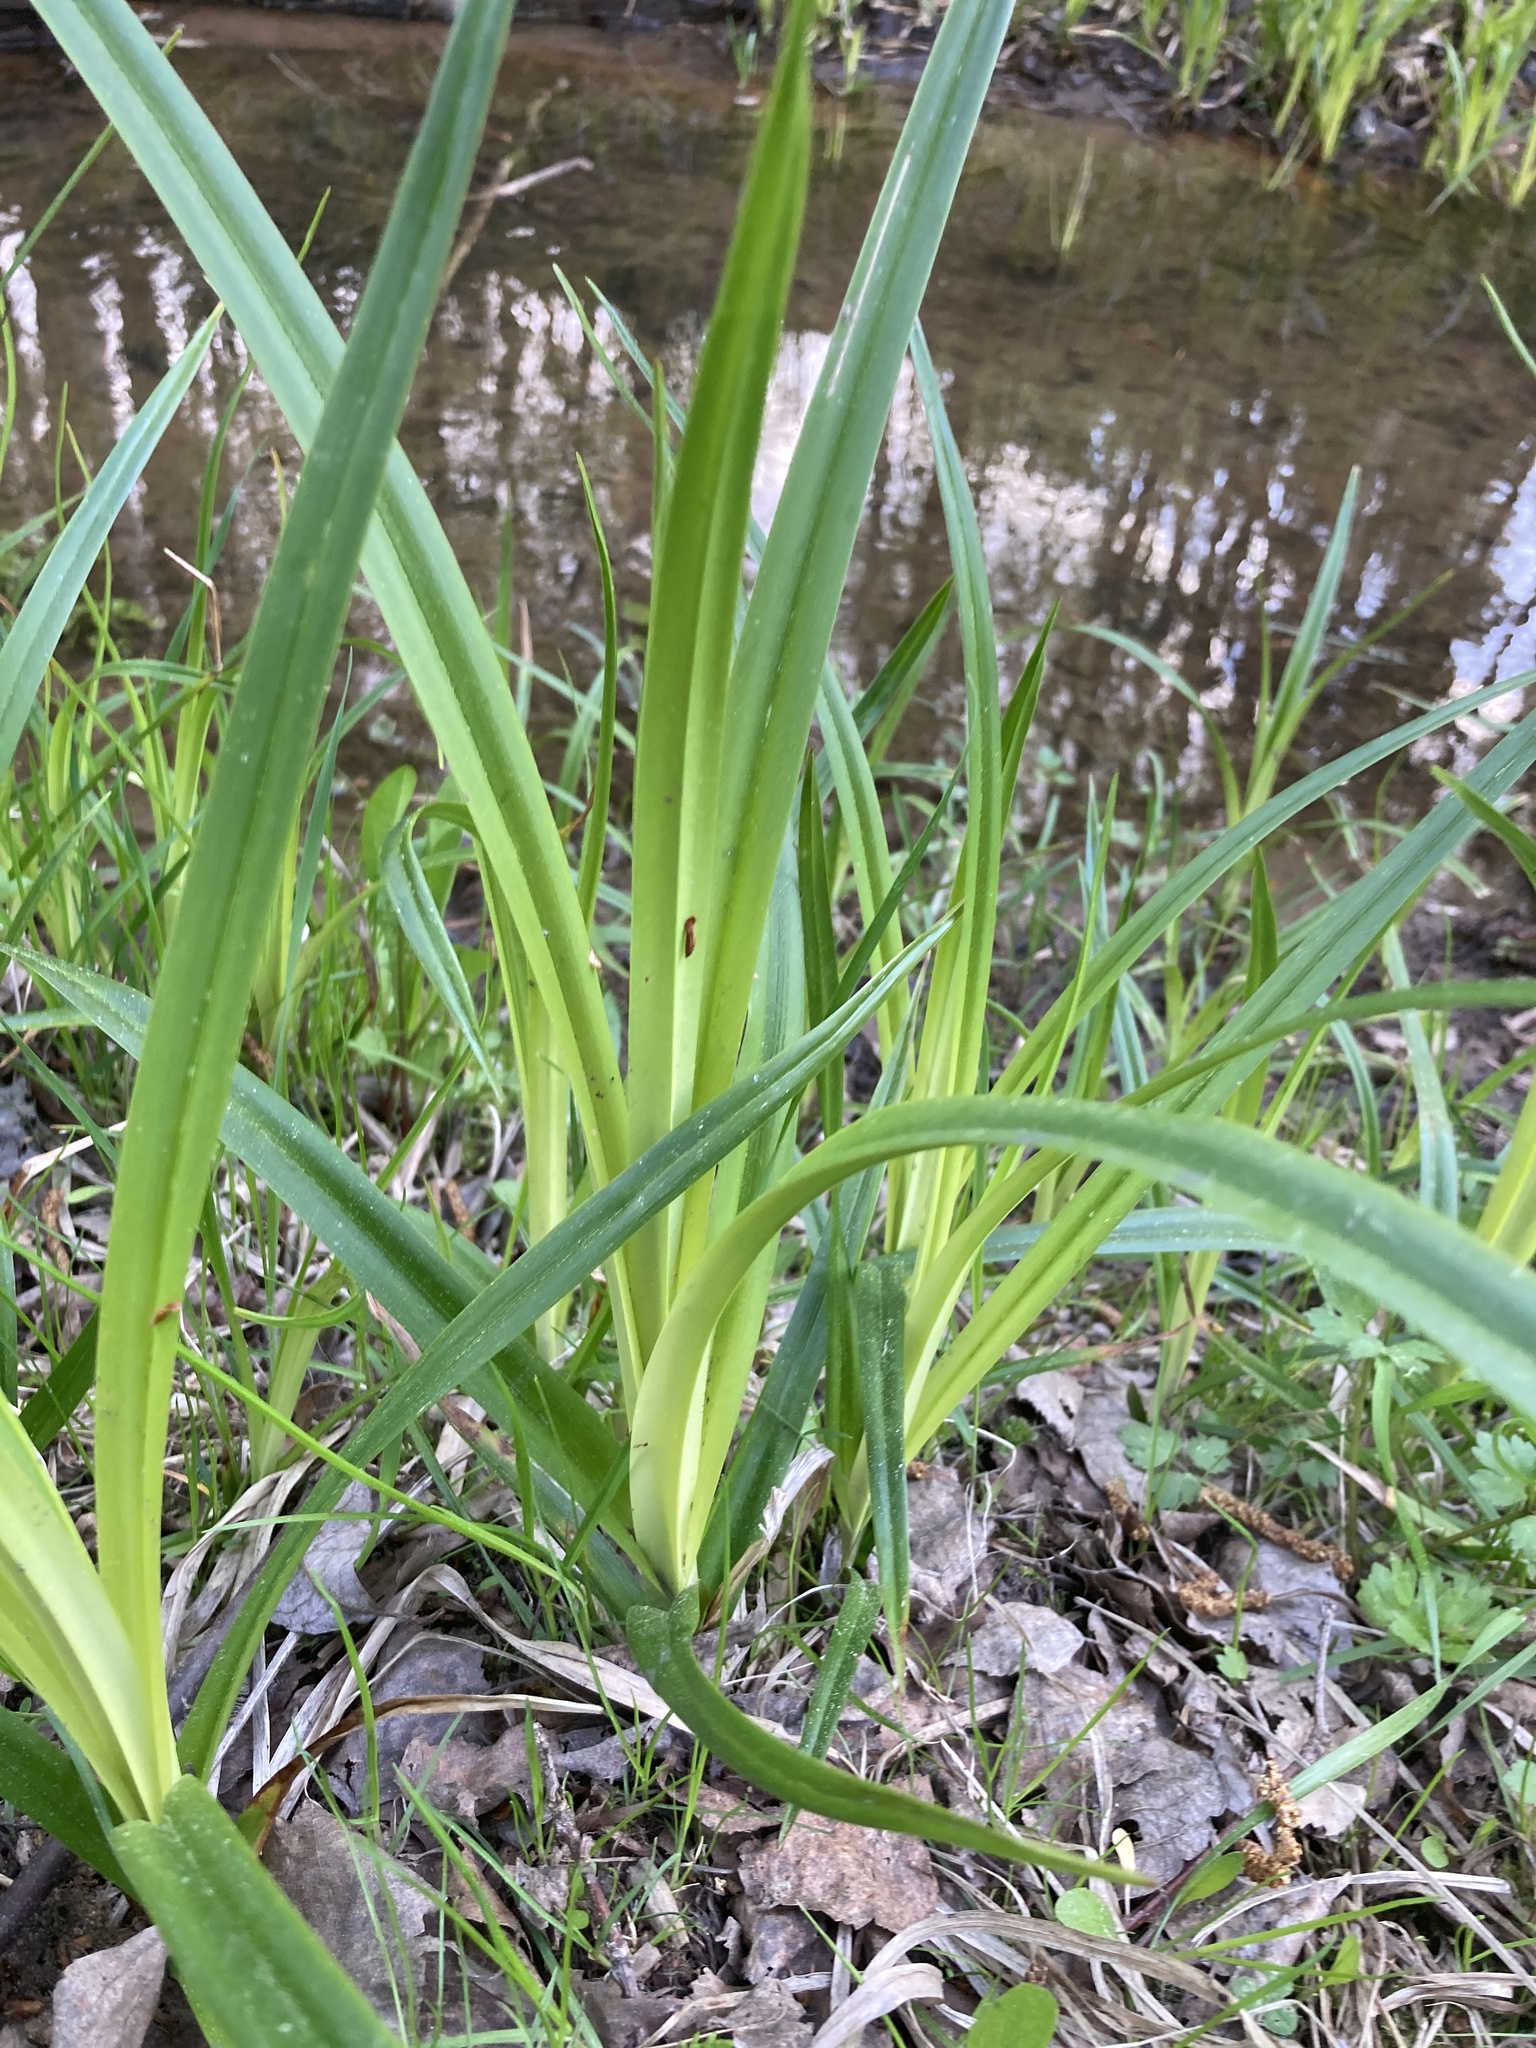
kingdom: Plantae
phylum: Tracheophyta
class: Liliopsida
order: Poales
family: Cyperaceae
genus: Scirpus
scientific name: Scirpus sylvaticus
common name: Wood club-rush
